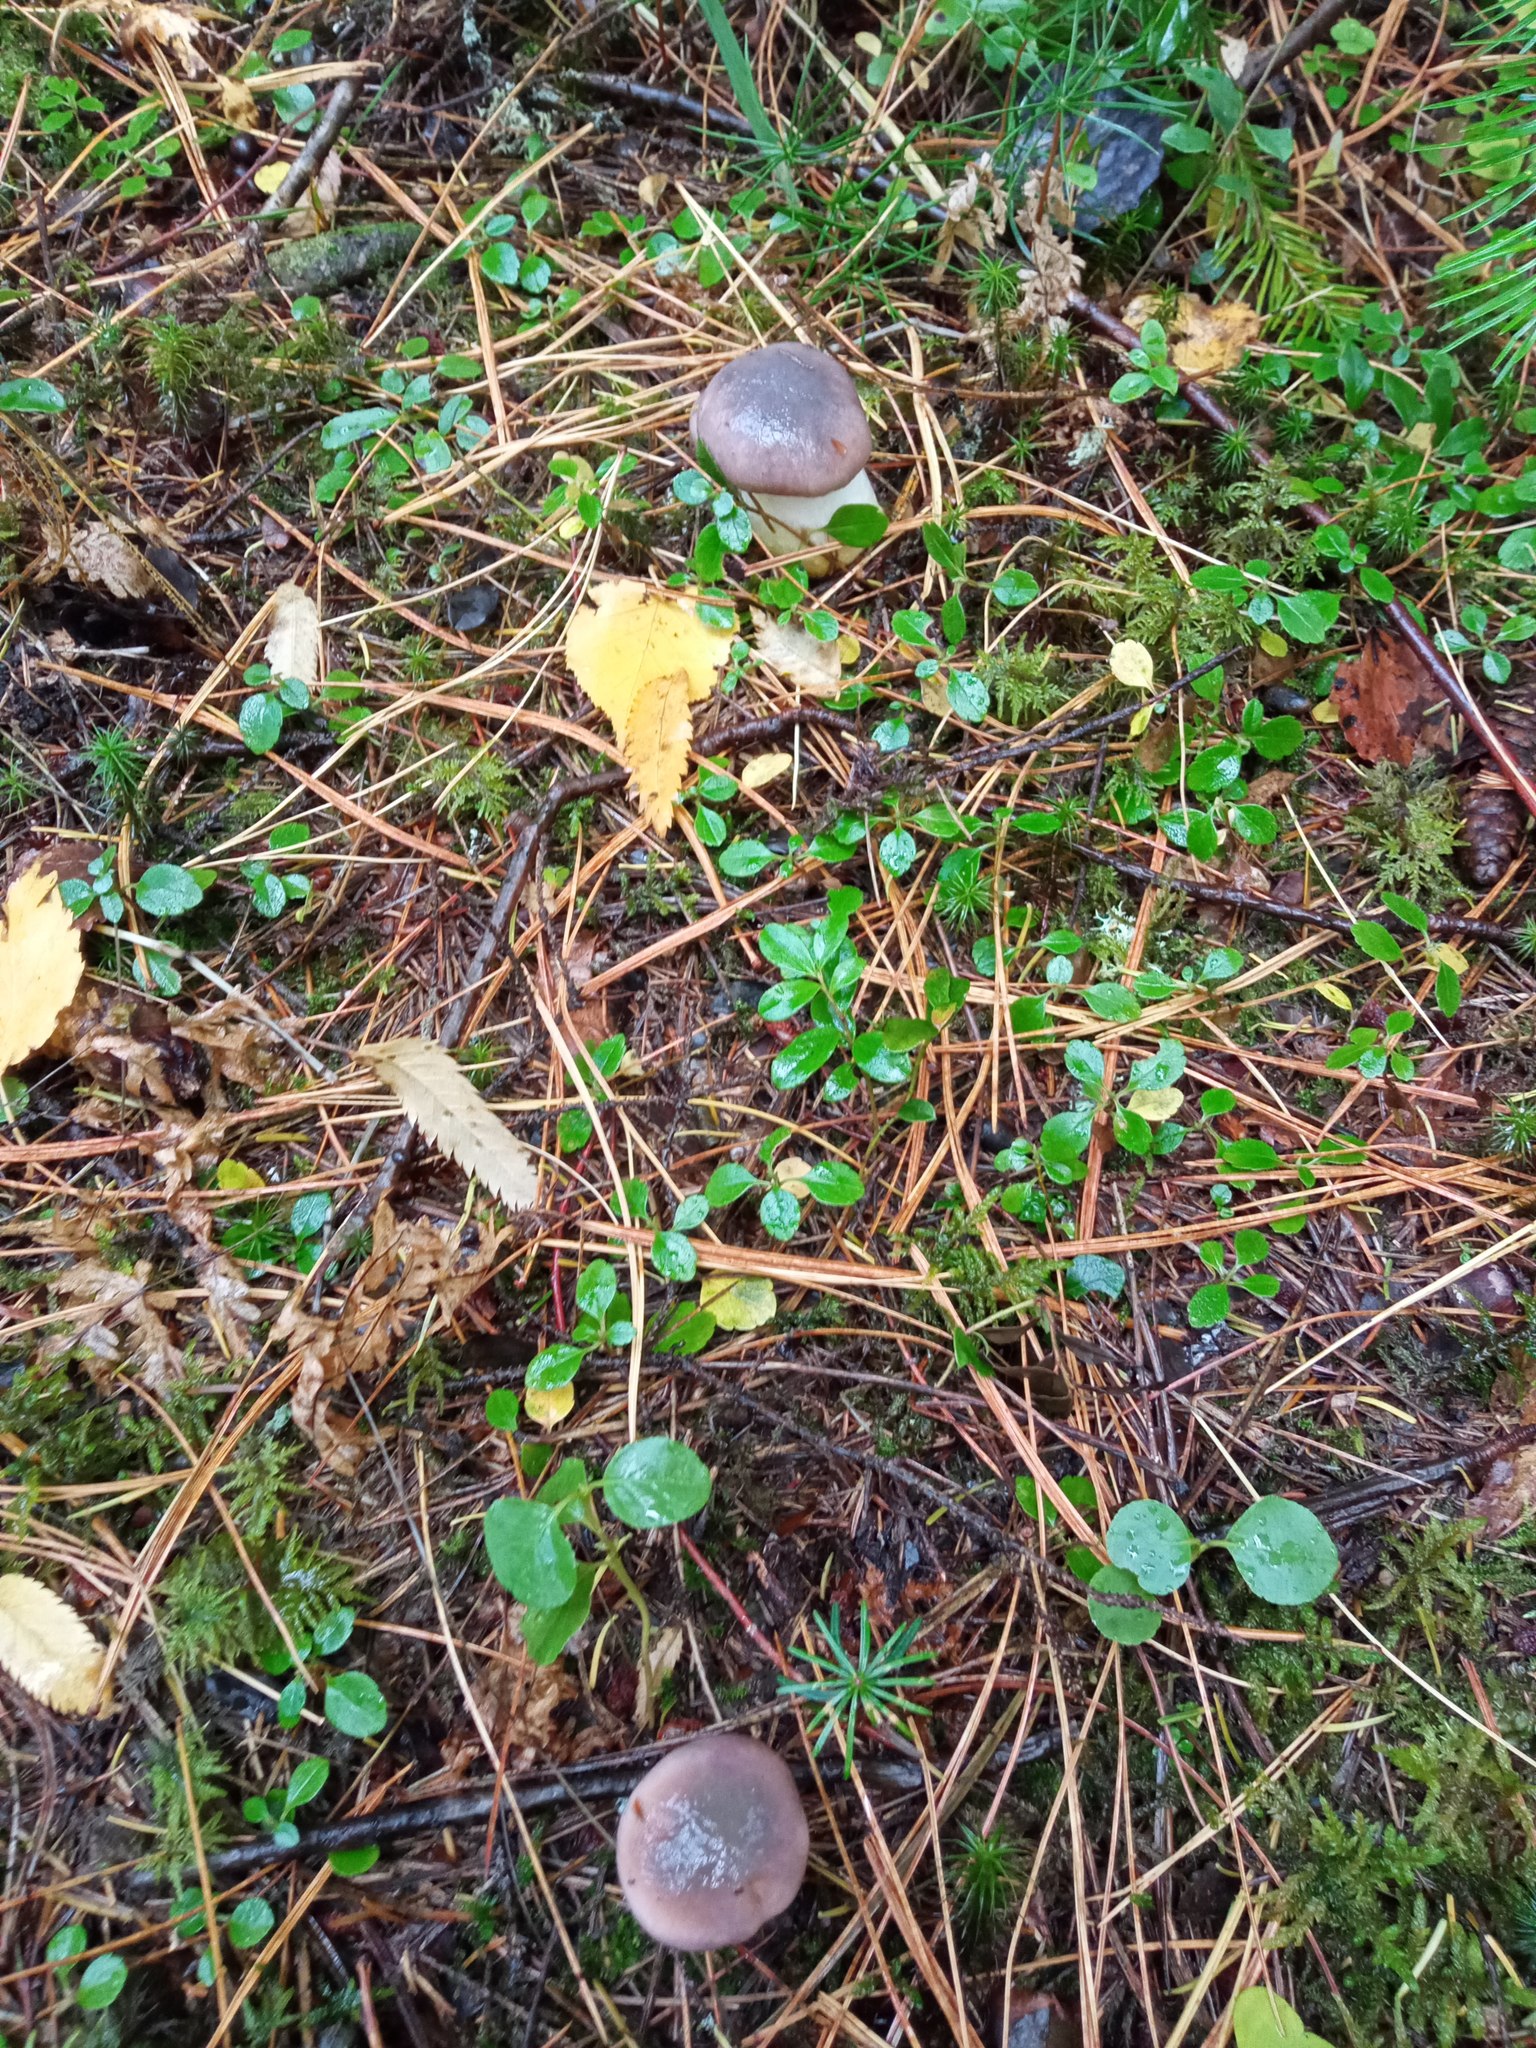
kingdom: Fungi
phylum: Basidiomycota
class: Agaricomycetes
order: Boletales
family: Gomphidiaceae
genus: Gomphidius
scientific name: Gomphidius glutinosus
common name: Slimy spike
